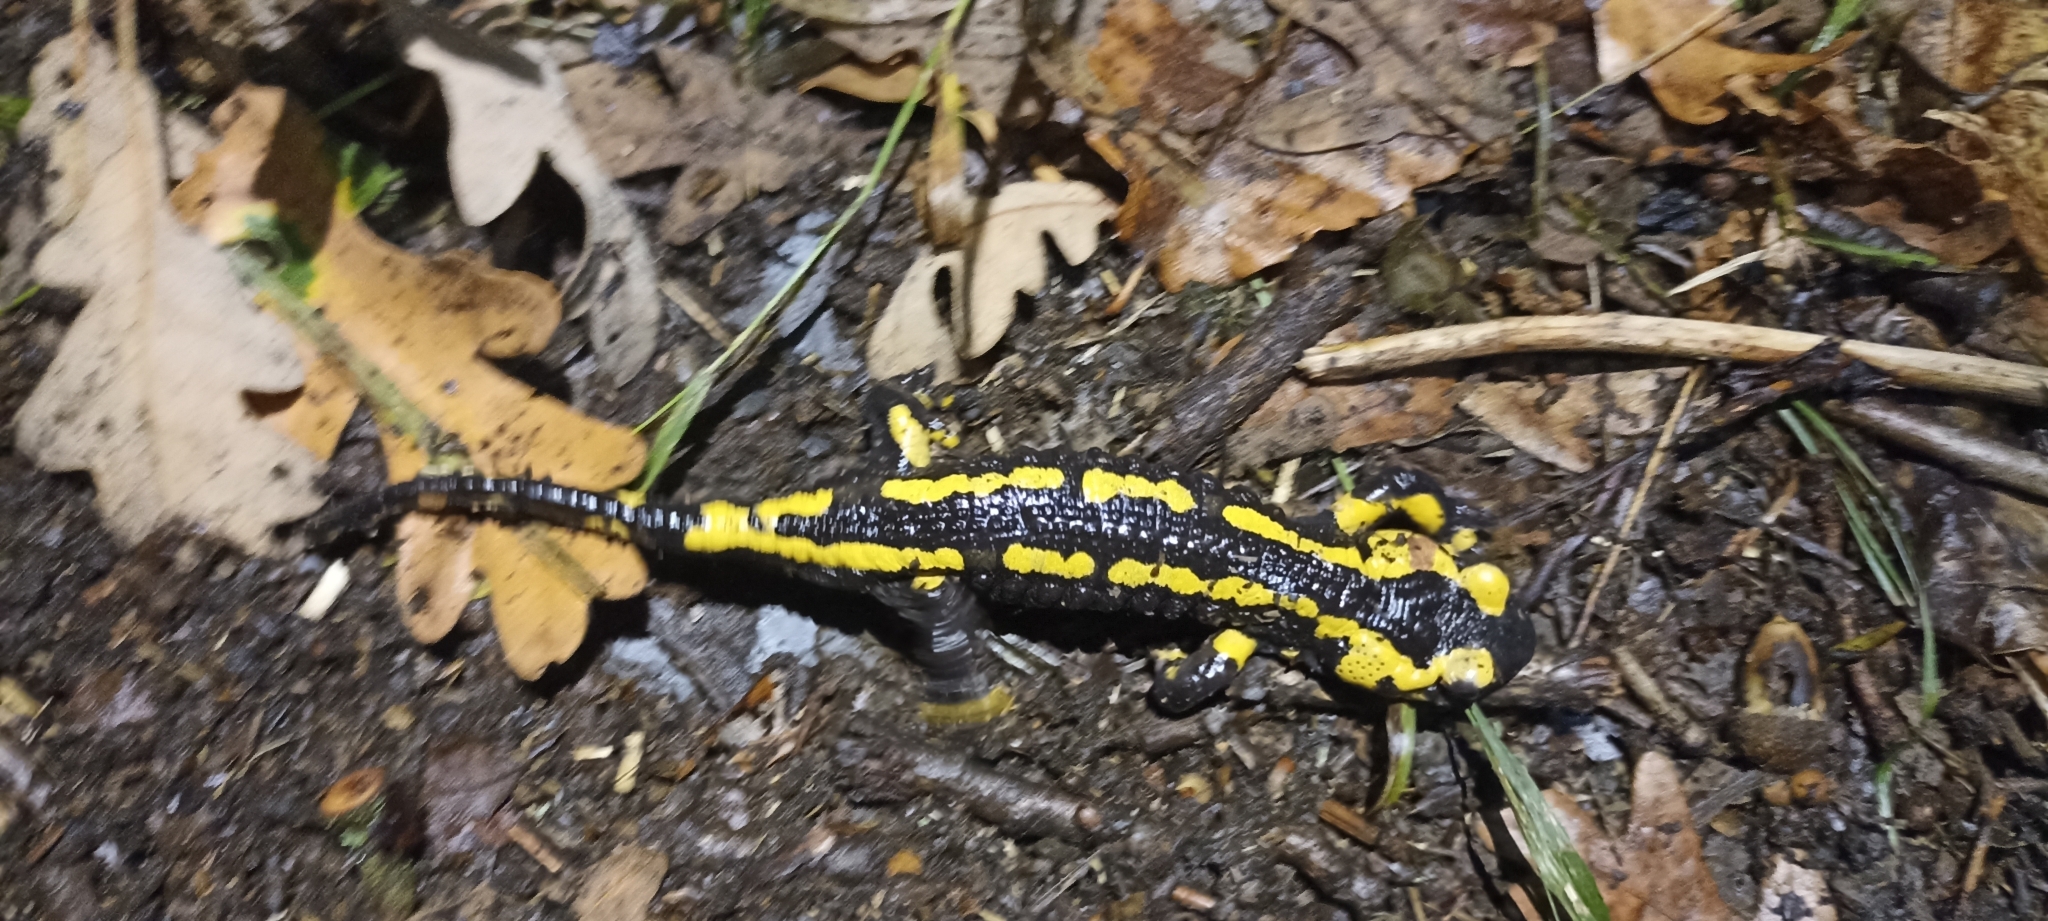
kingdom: Animalia
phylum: Chordata
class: Amphibia
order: Caudata
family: Salamandridae
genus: Salamandra
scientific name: Salamandra salamandra
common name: Fire salamander
